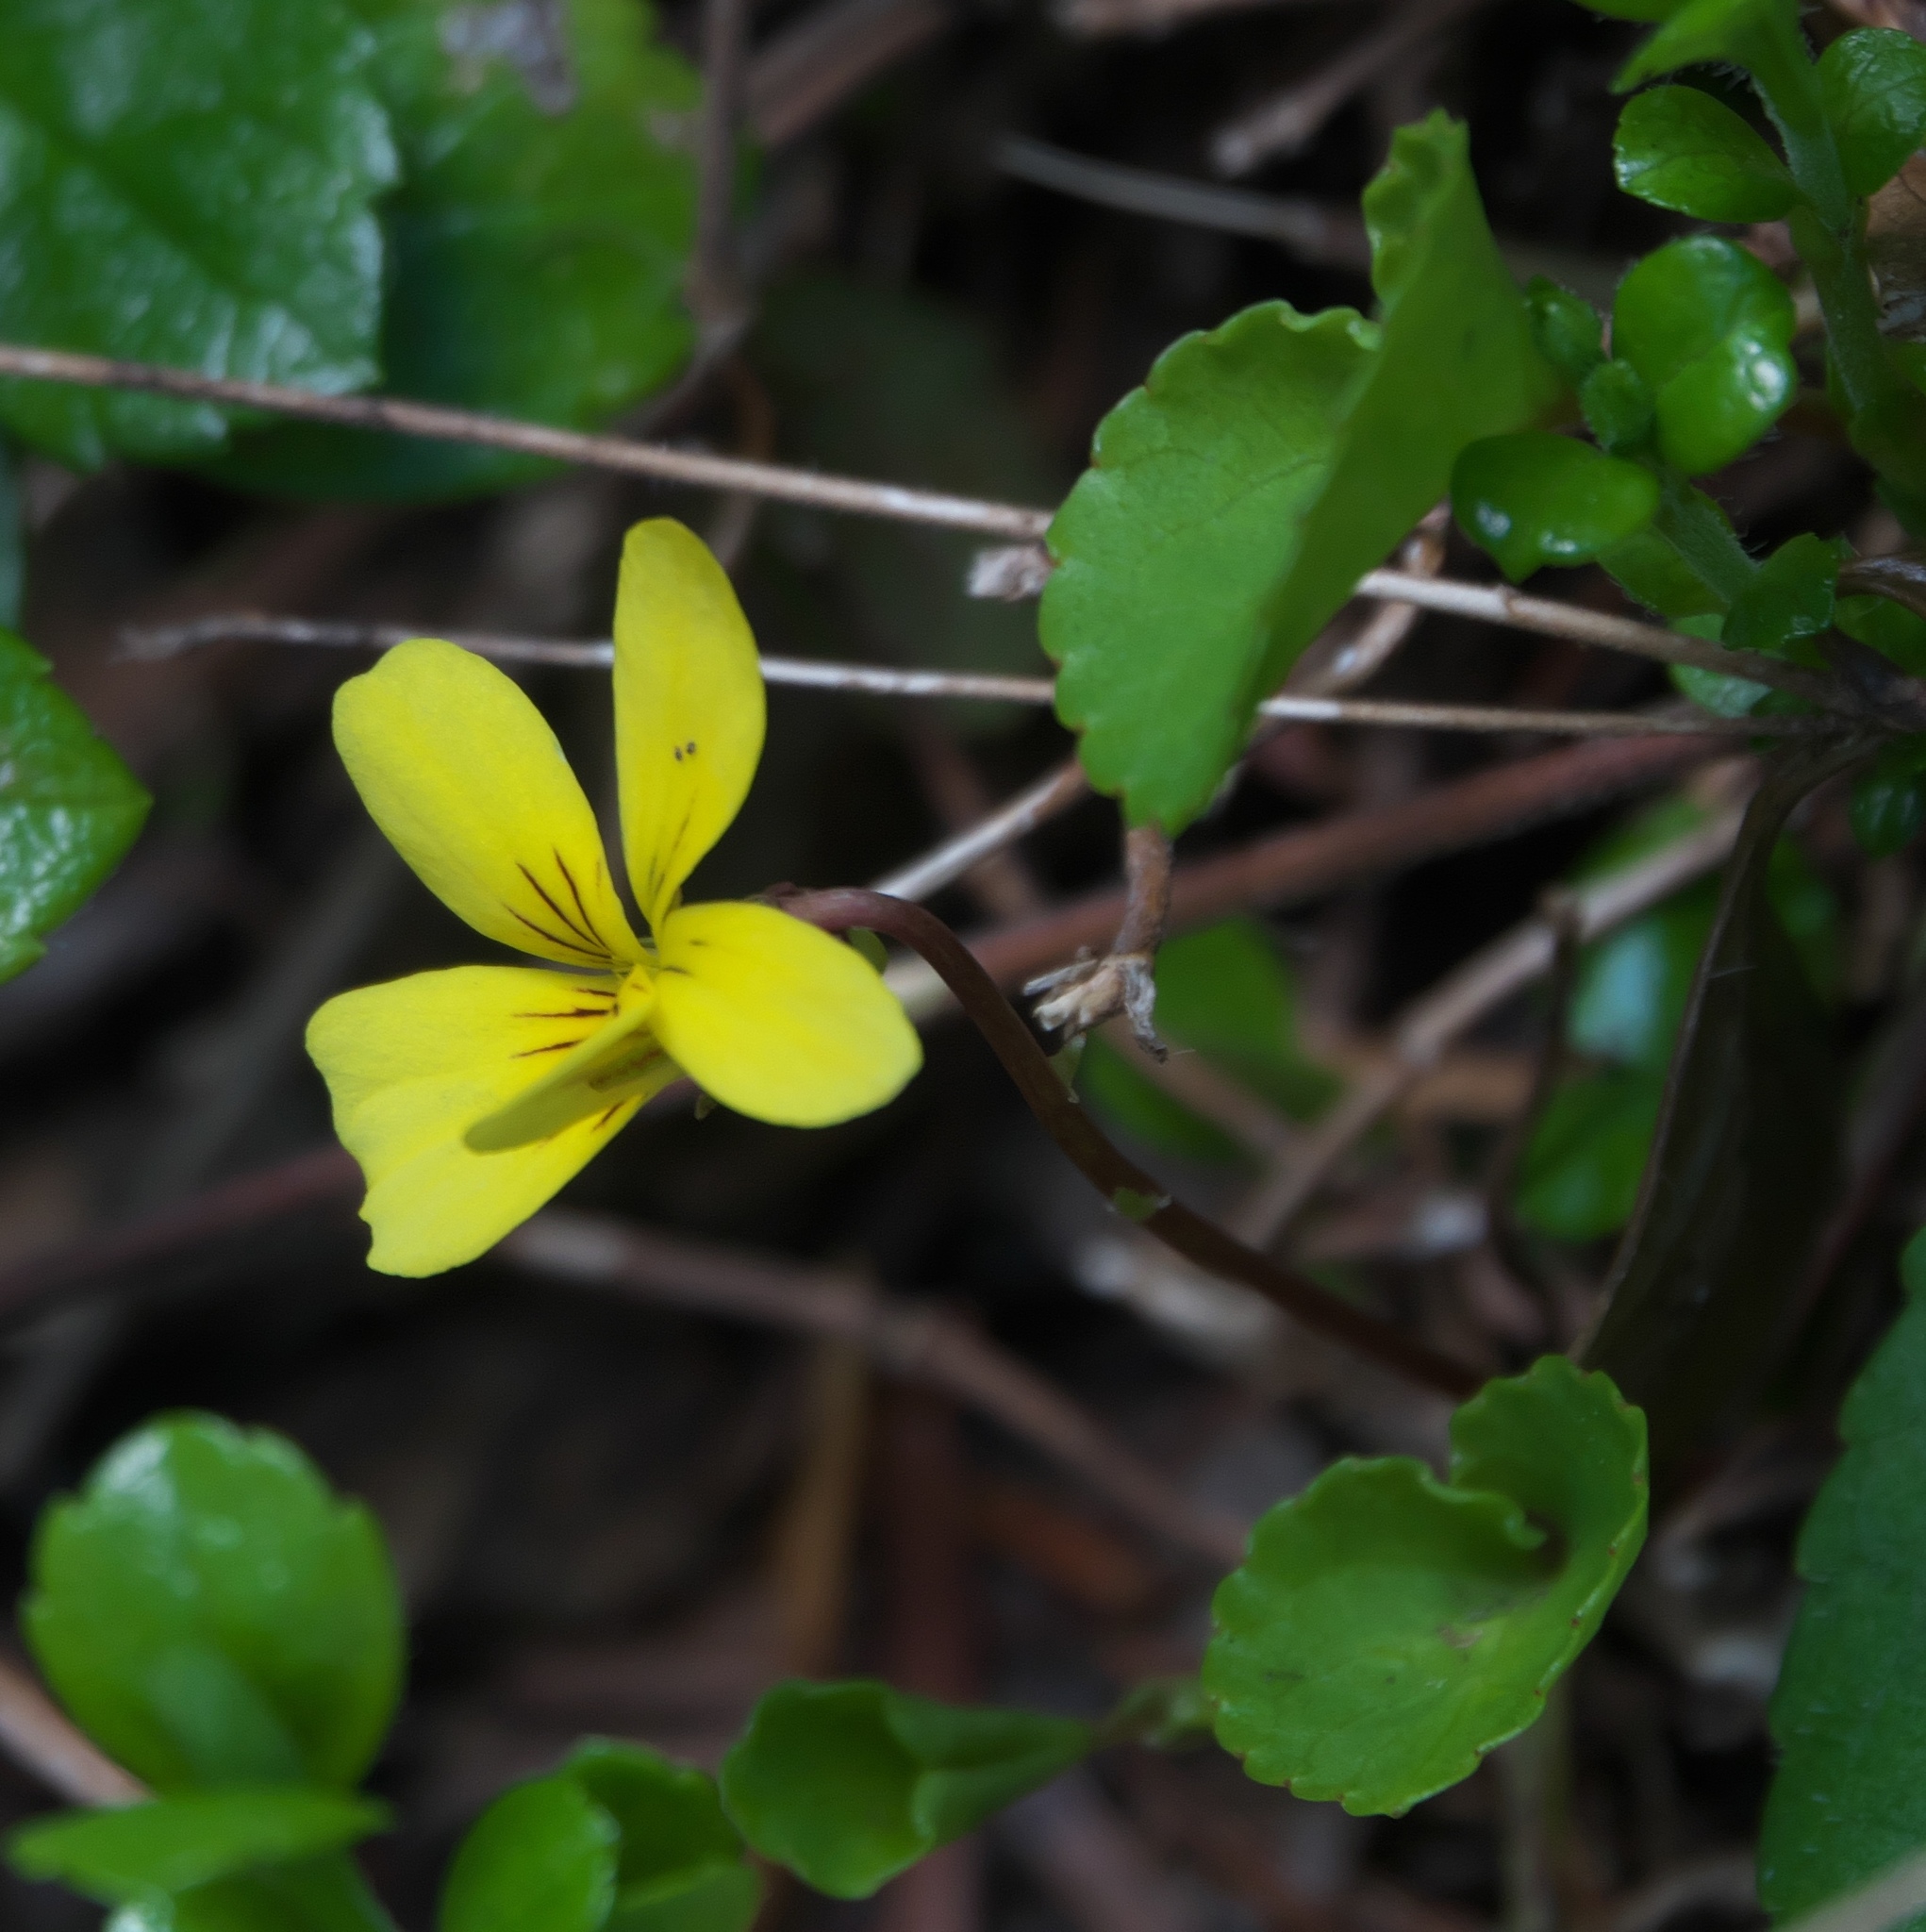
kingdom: Plantae
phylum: Tracheophyta
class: Magnoliopsida
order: Malpighiales
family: Violaceae
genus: Viola
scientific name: Viola sempervirens
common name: Evergreen violet
